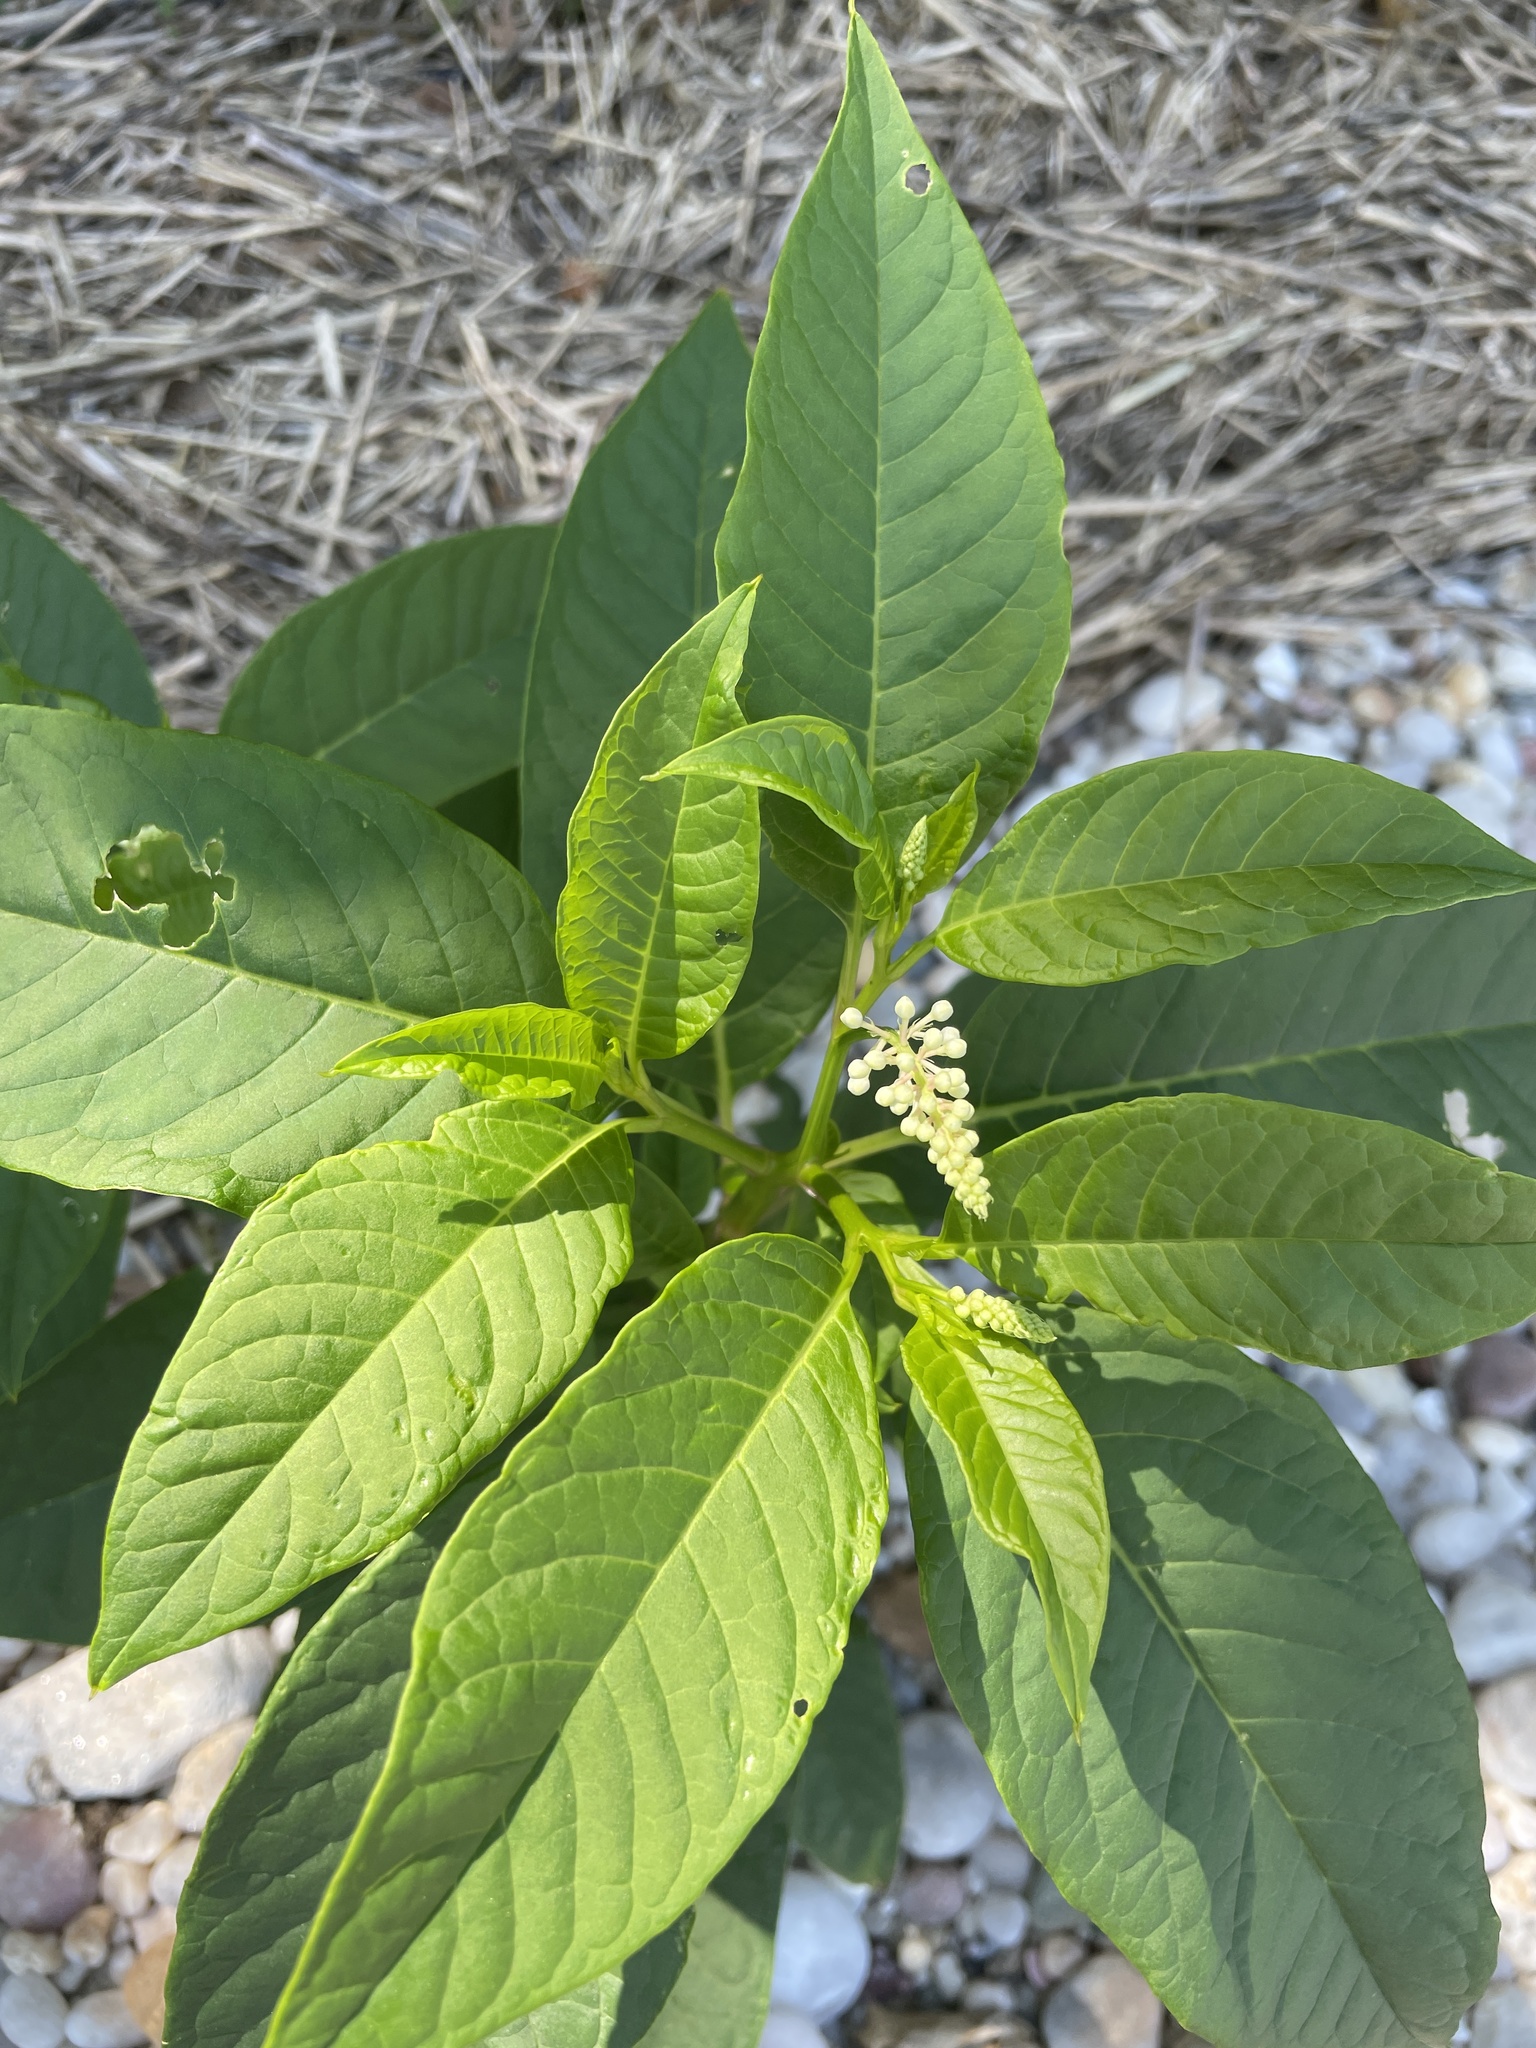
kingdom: Plantae
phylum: Tracheophyta
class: Magnoliopsida
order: Caryophyllales
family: Phytolaccaceae
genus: Phytolacca
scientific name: Phytolacca americana
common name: American pokeweed
